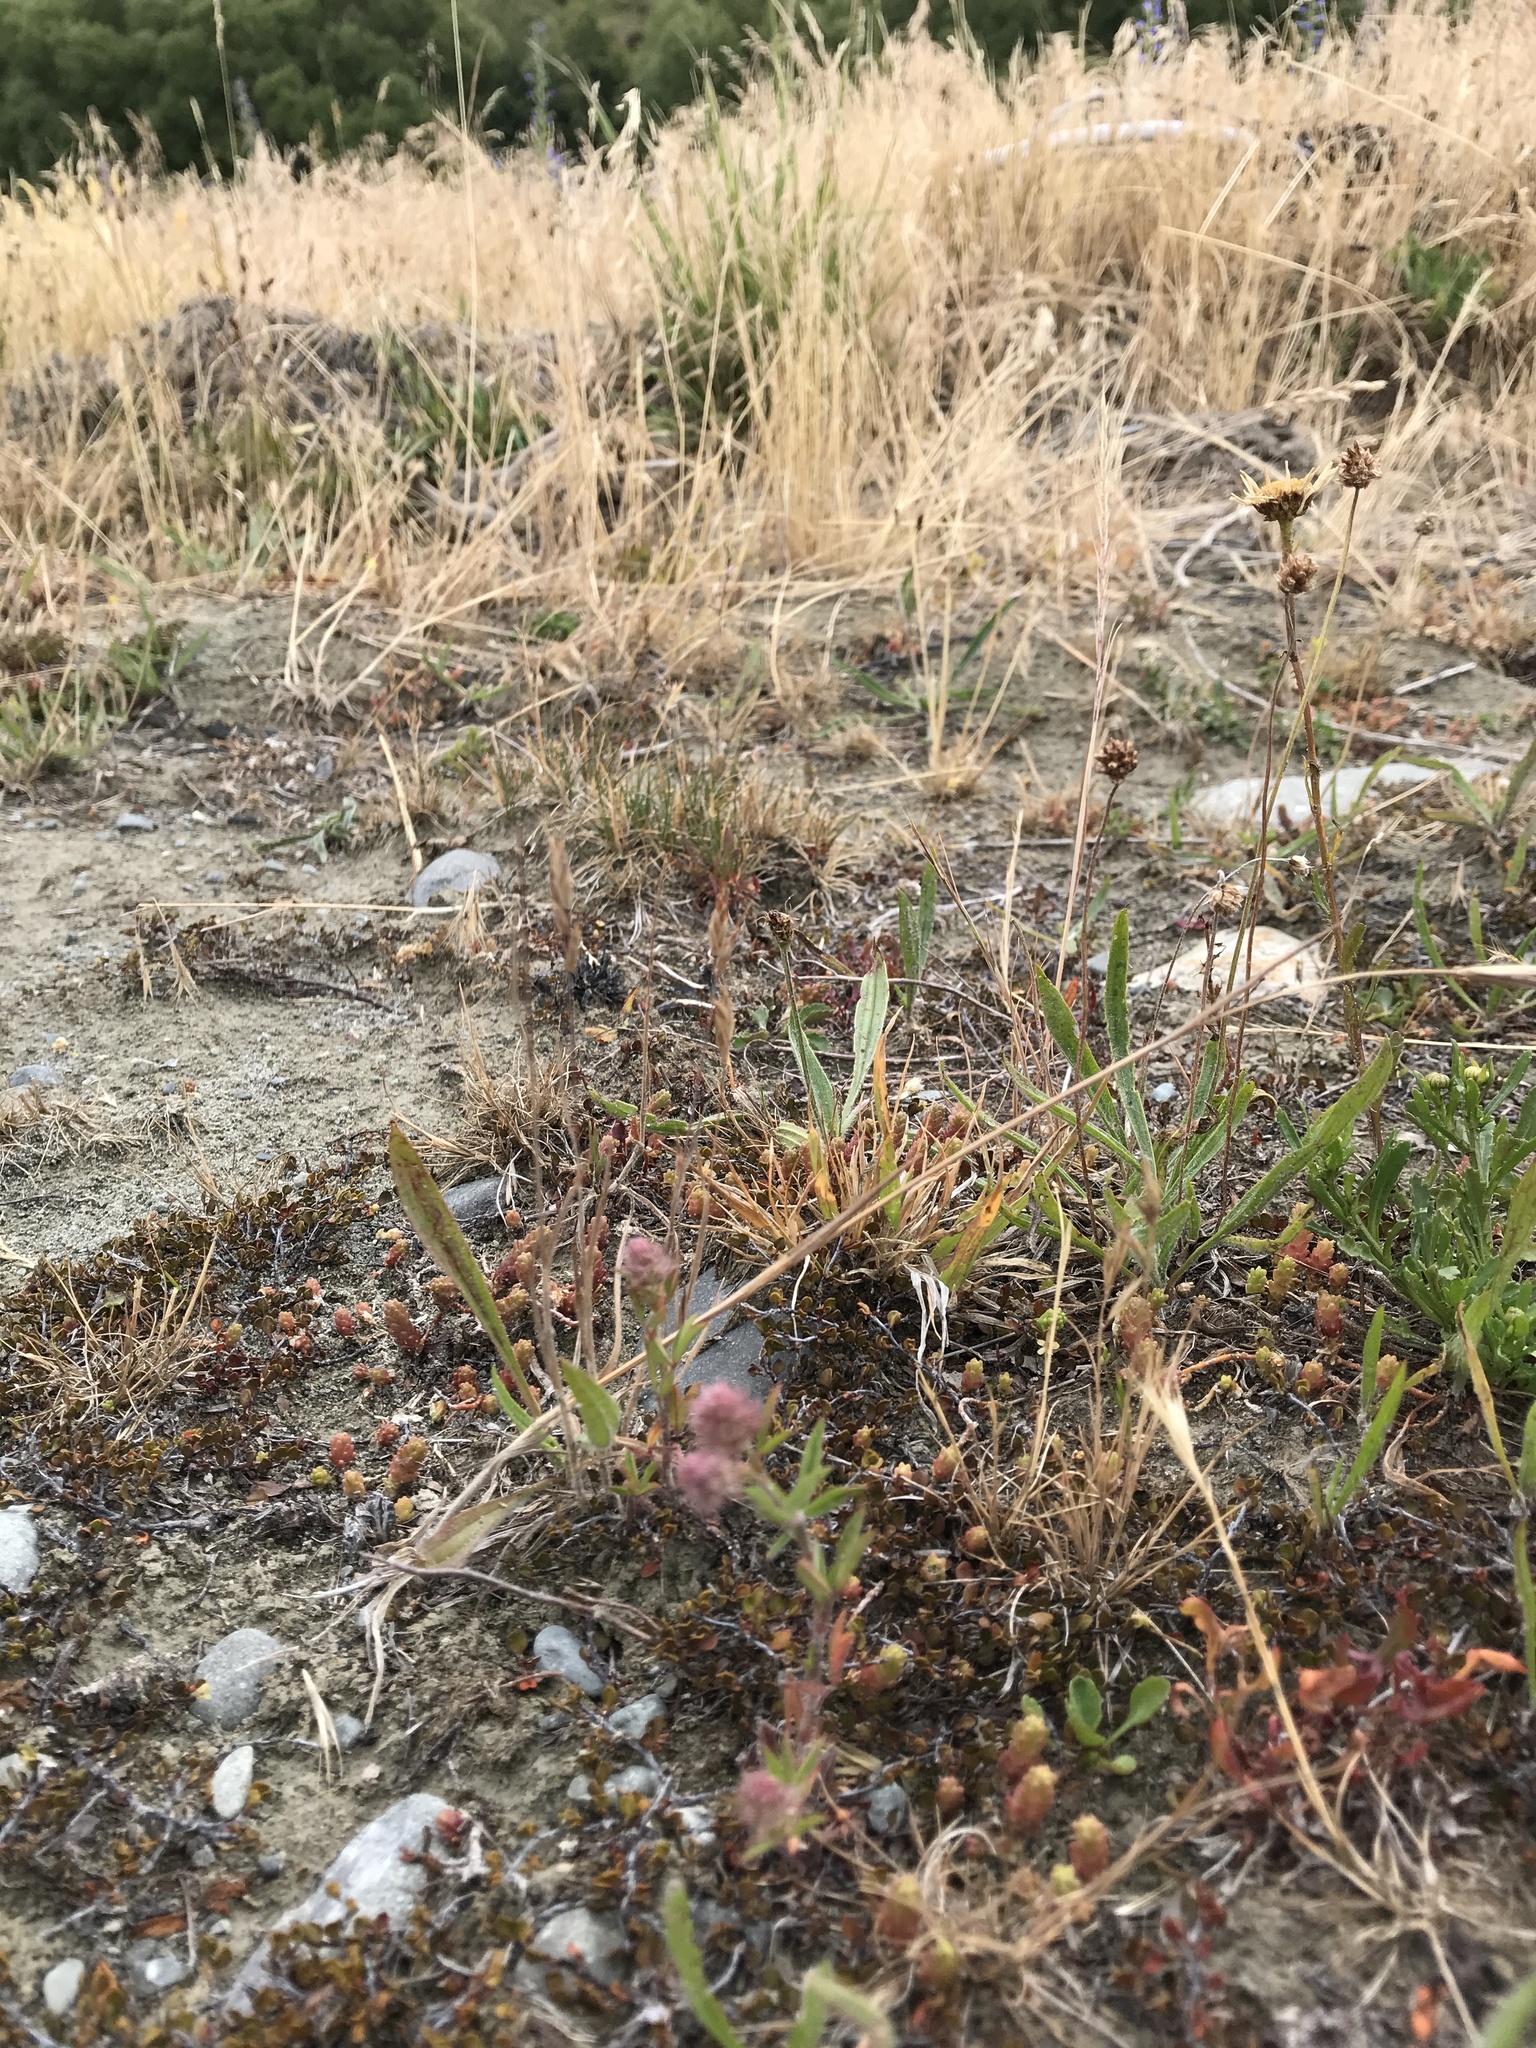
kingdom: Plantae
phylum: Tracheophyta
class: Magnoliopsida
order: Fabales
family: Fabaceae
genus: Trifolium
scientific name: Trifolium arvense
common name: Hare's-foot clover
